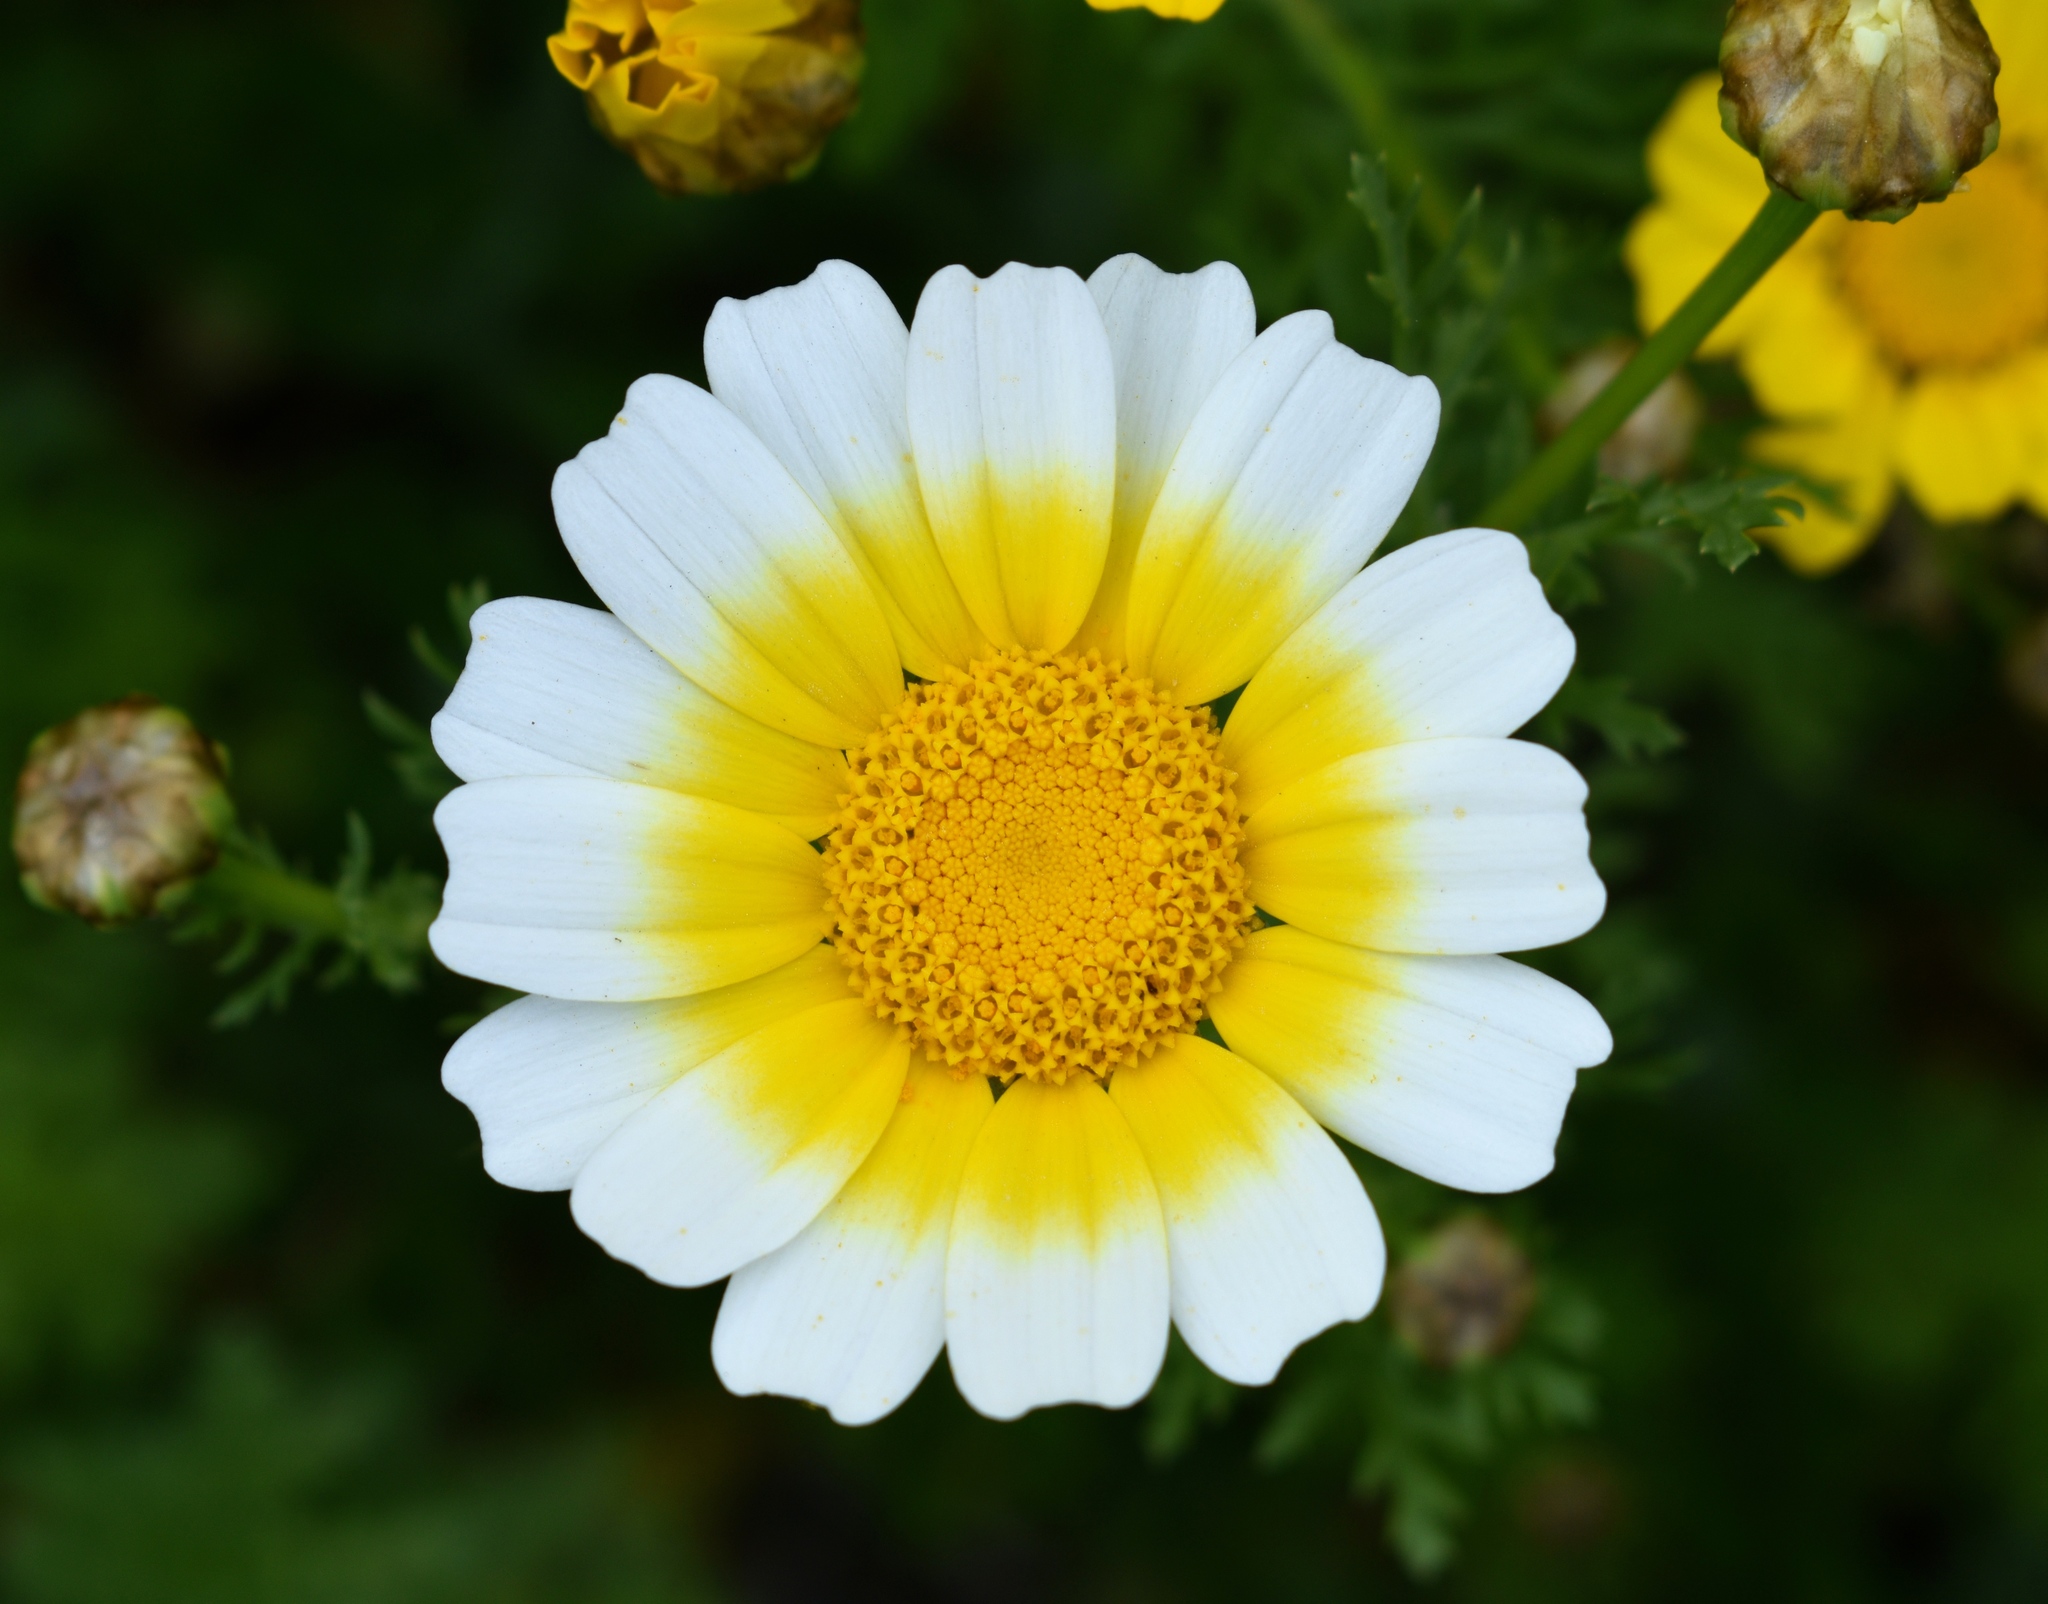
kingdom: Plantae
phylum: Tracheophyta
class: Magnoliopsida
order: Asterales
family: Asteraceae
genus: Glebionis
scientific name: Glebionis coronaria
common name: Crowndaisy
